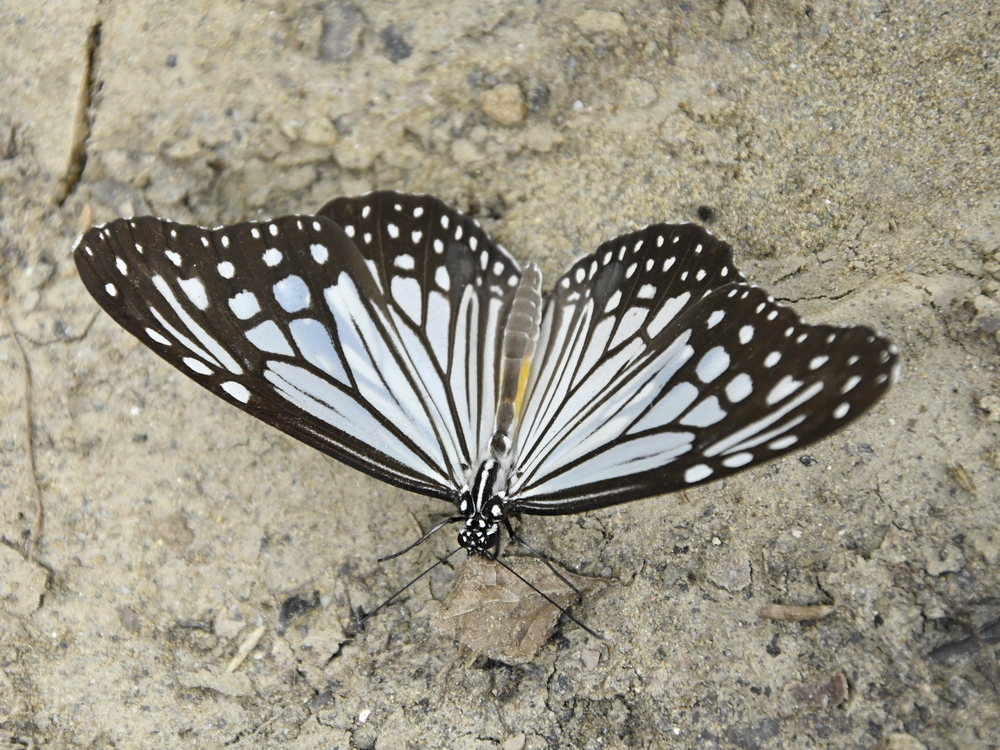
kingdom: Animalia
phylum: Arthropoda
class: Insecta
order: Lepidoptera
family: Nymphalidae
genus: Parantica
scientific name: Parantica aglea
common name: Glassy tiger
